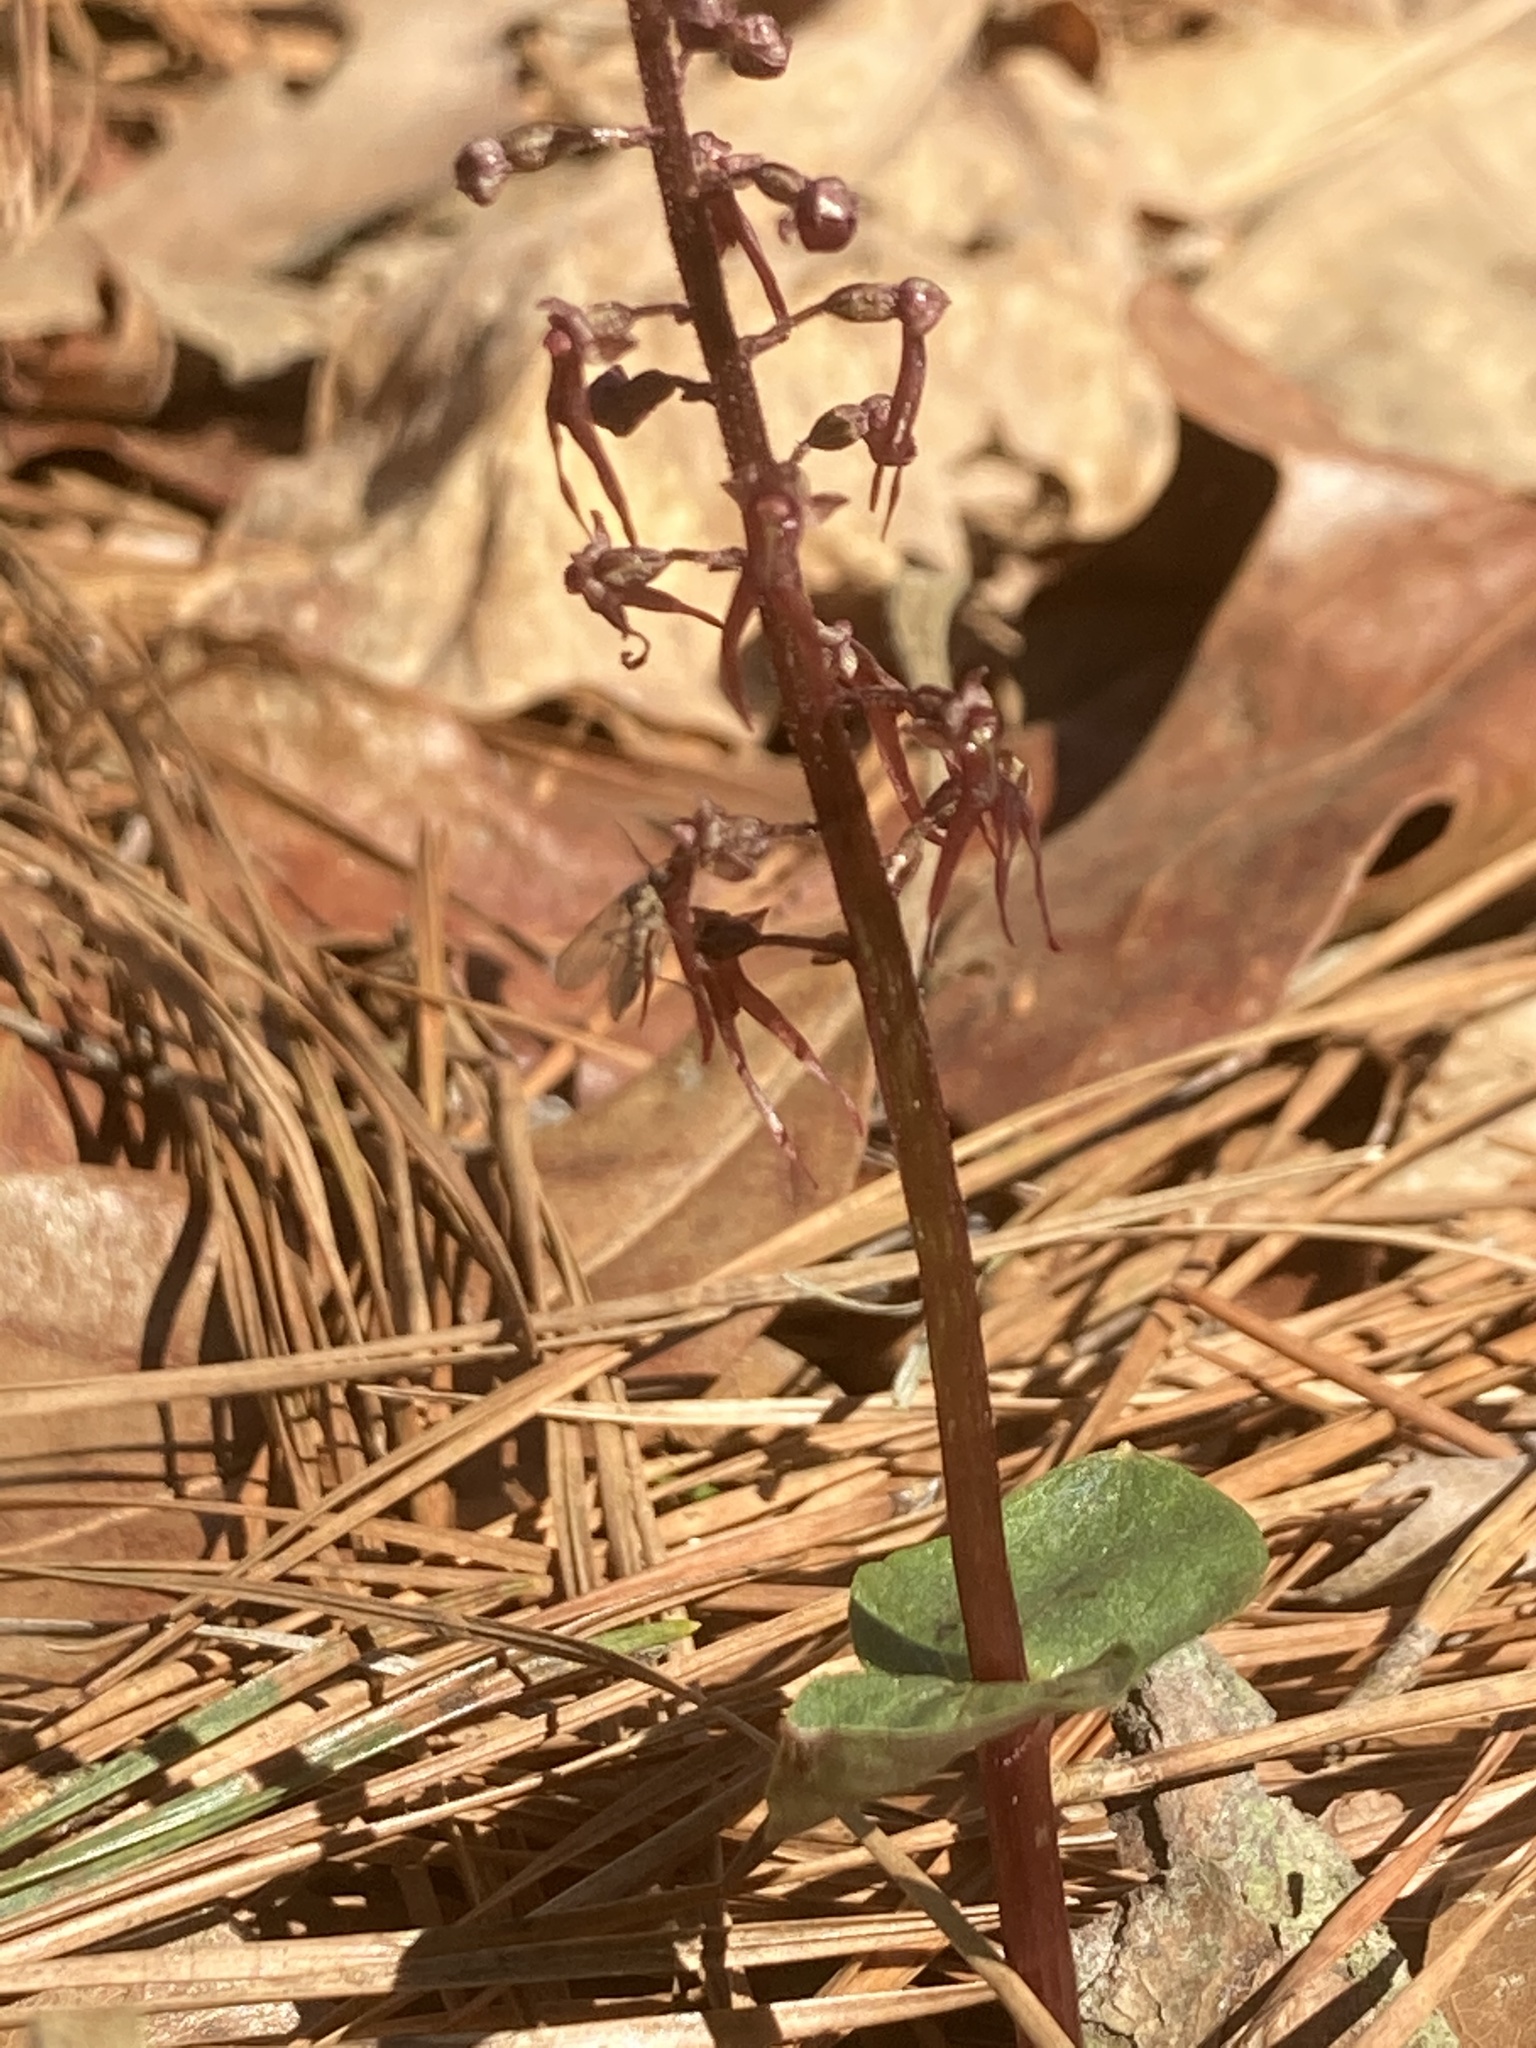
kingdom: Plantae
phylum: Tracheophyta
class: Liliopsida
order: Asparagales
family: Orchidaceae
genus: Neottia
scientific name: Neottia bifolia
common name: Southern twayblade
